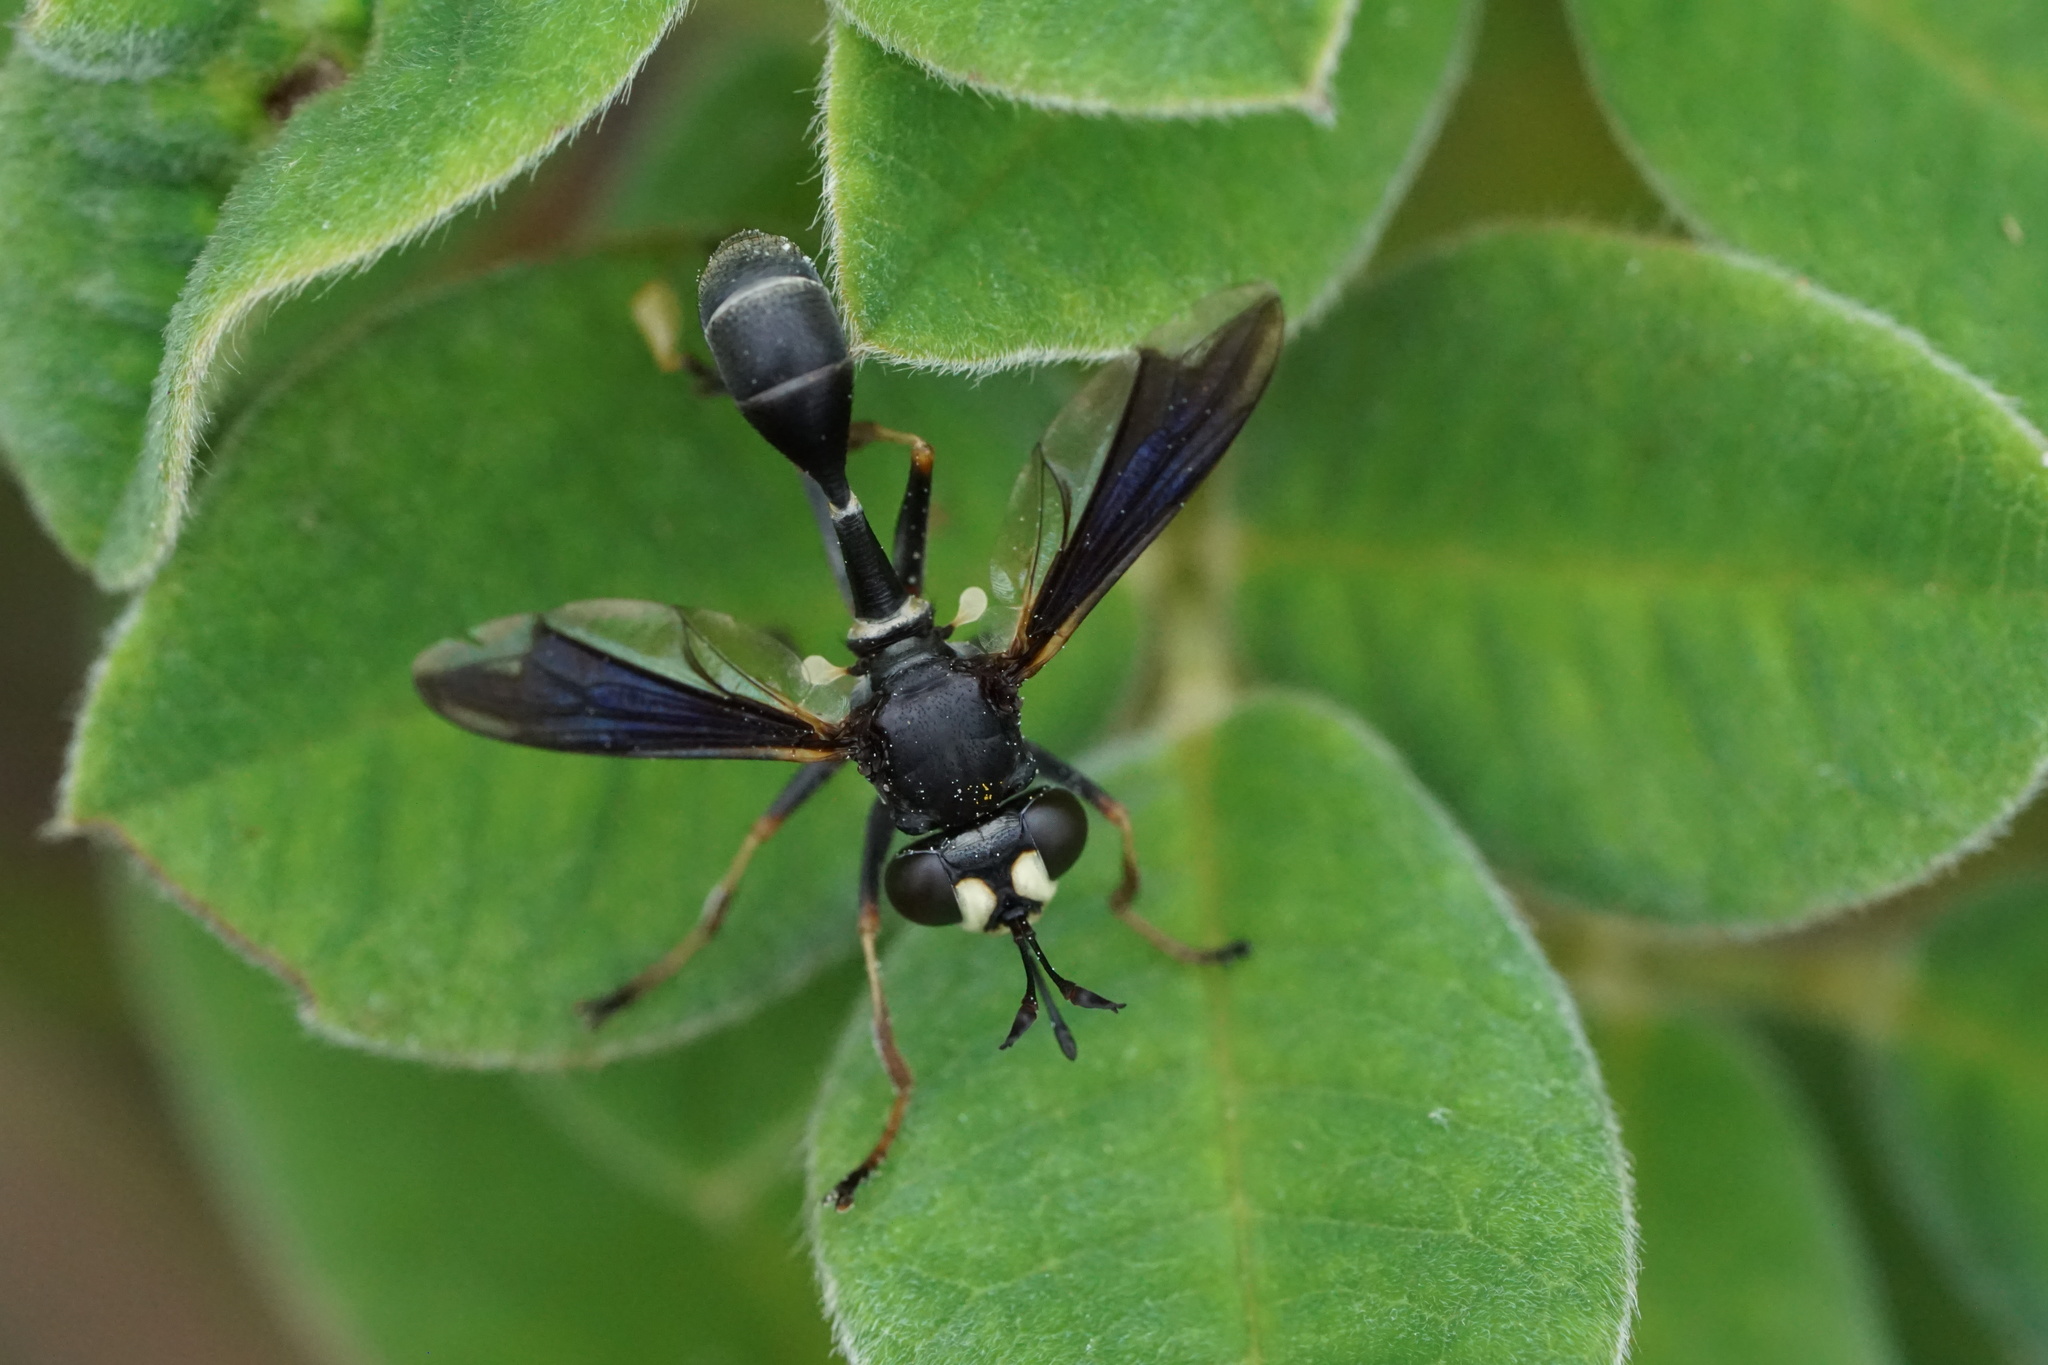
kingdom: Animalia
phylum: Arthropoda
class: Insecta
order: Diptera
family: Conopidae
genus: Physocephala
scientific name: Physocephala tibialis
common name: Common eastern physocephala
